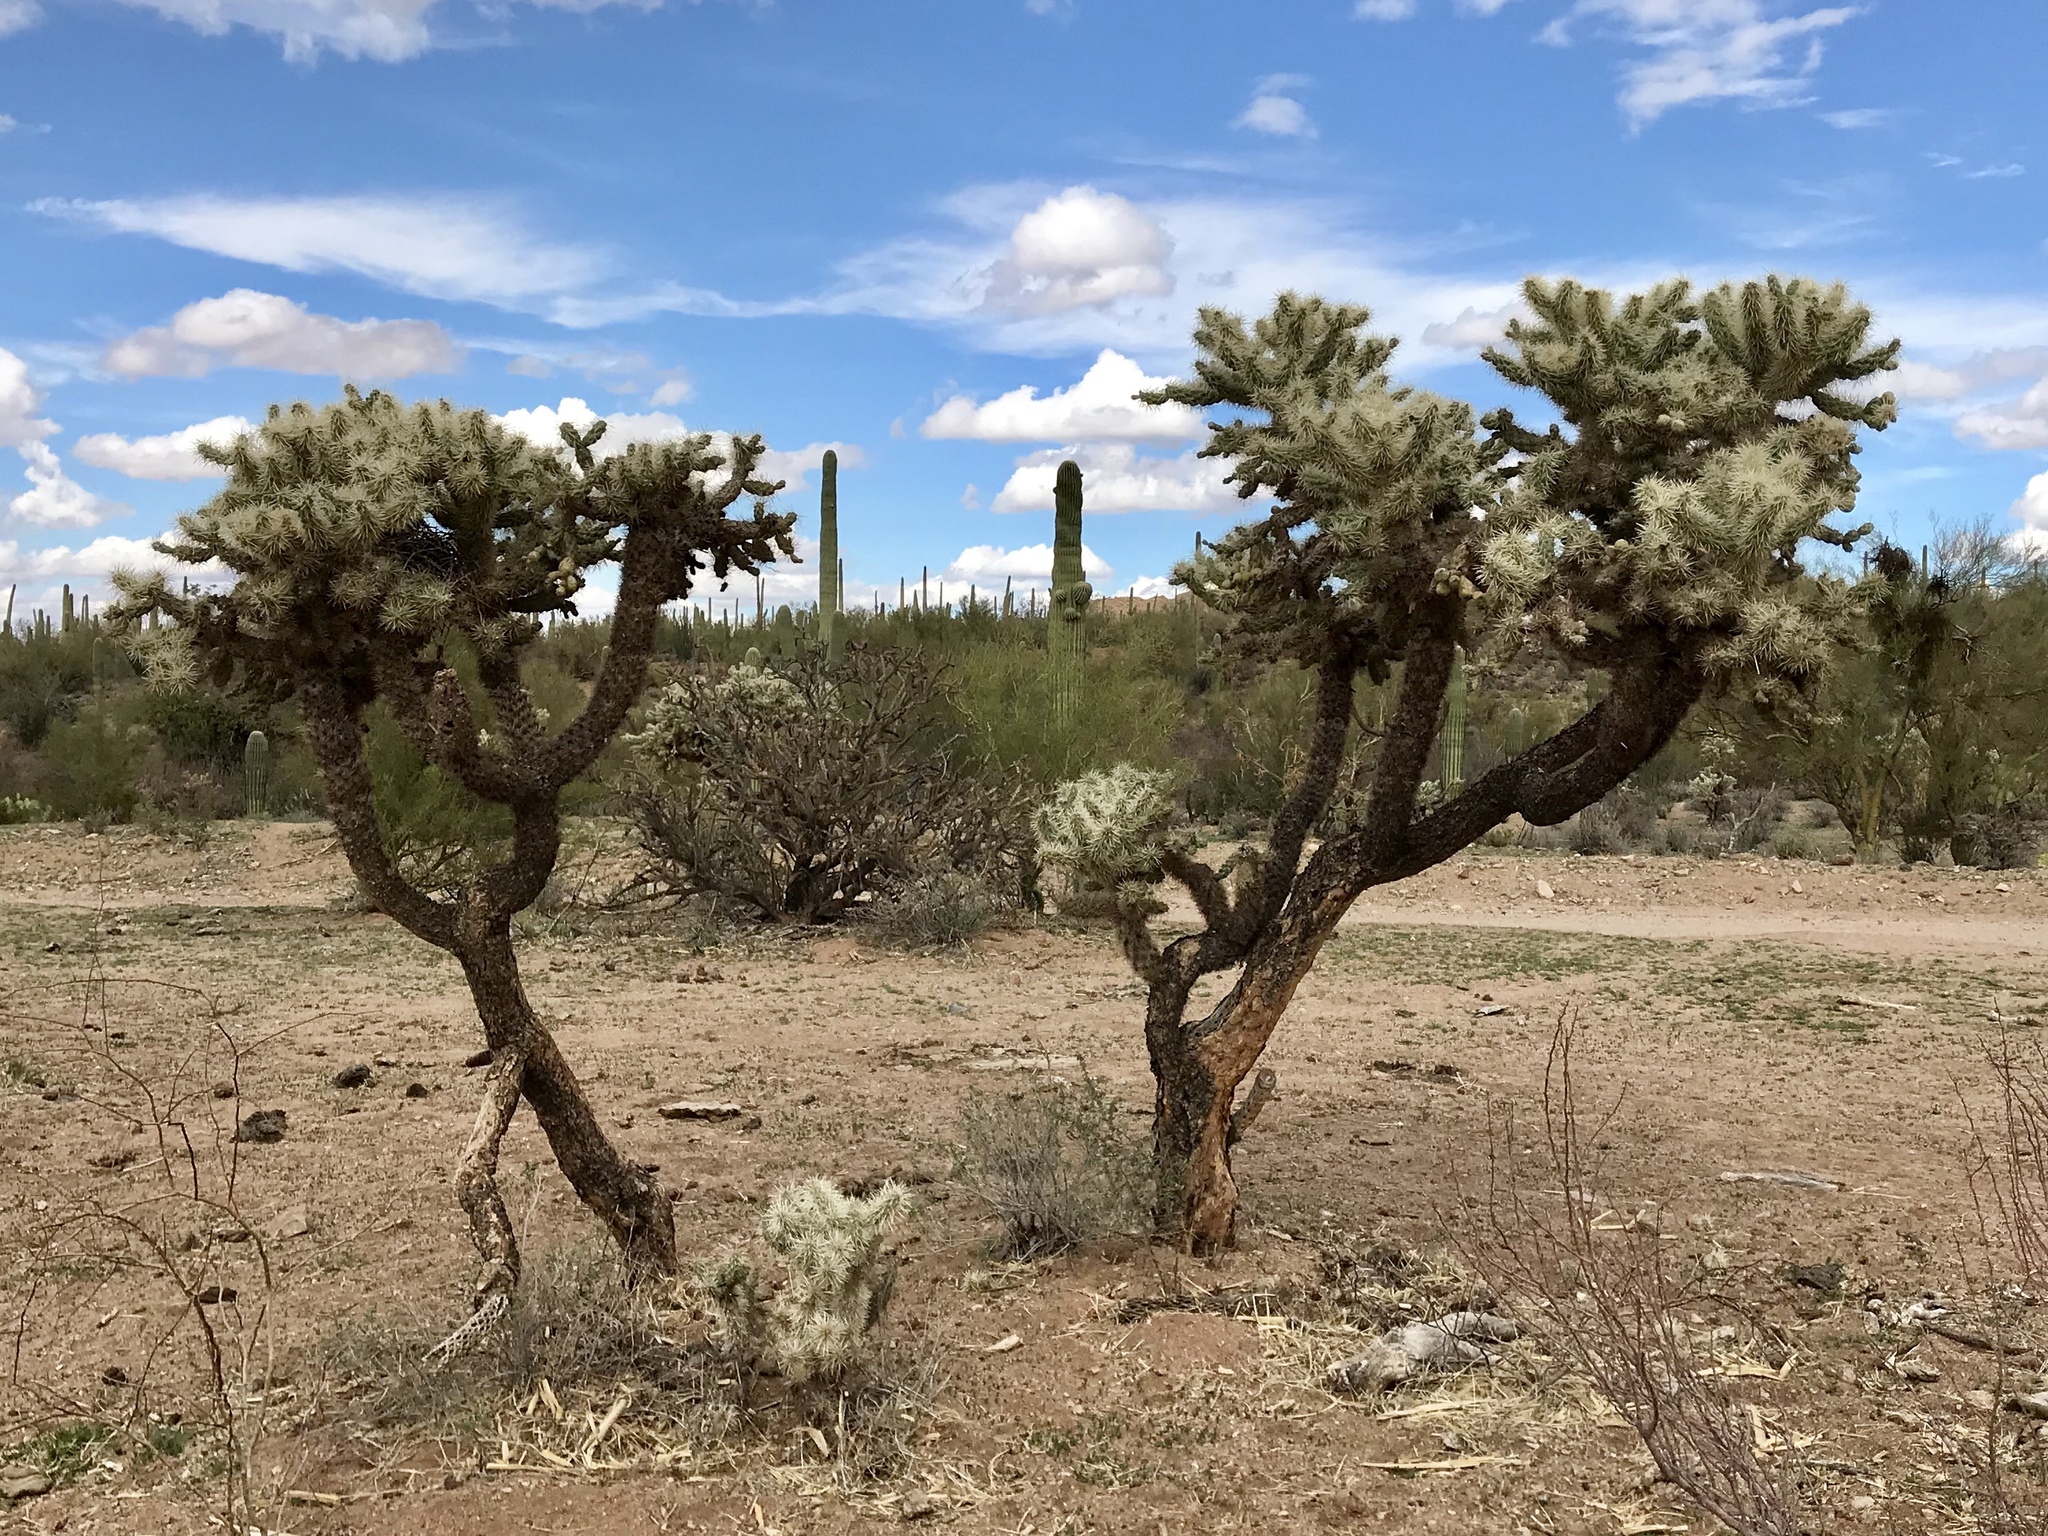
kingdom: Plantae
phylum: Tracheophyta
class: Magnoliopsida
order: Caryophyllales
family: Cactaceae
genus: Cylindropuntia
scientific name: Cylindropuntia fulgida
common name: Jumping cholla
